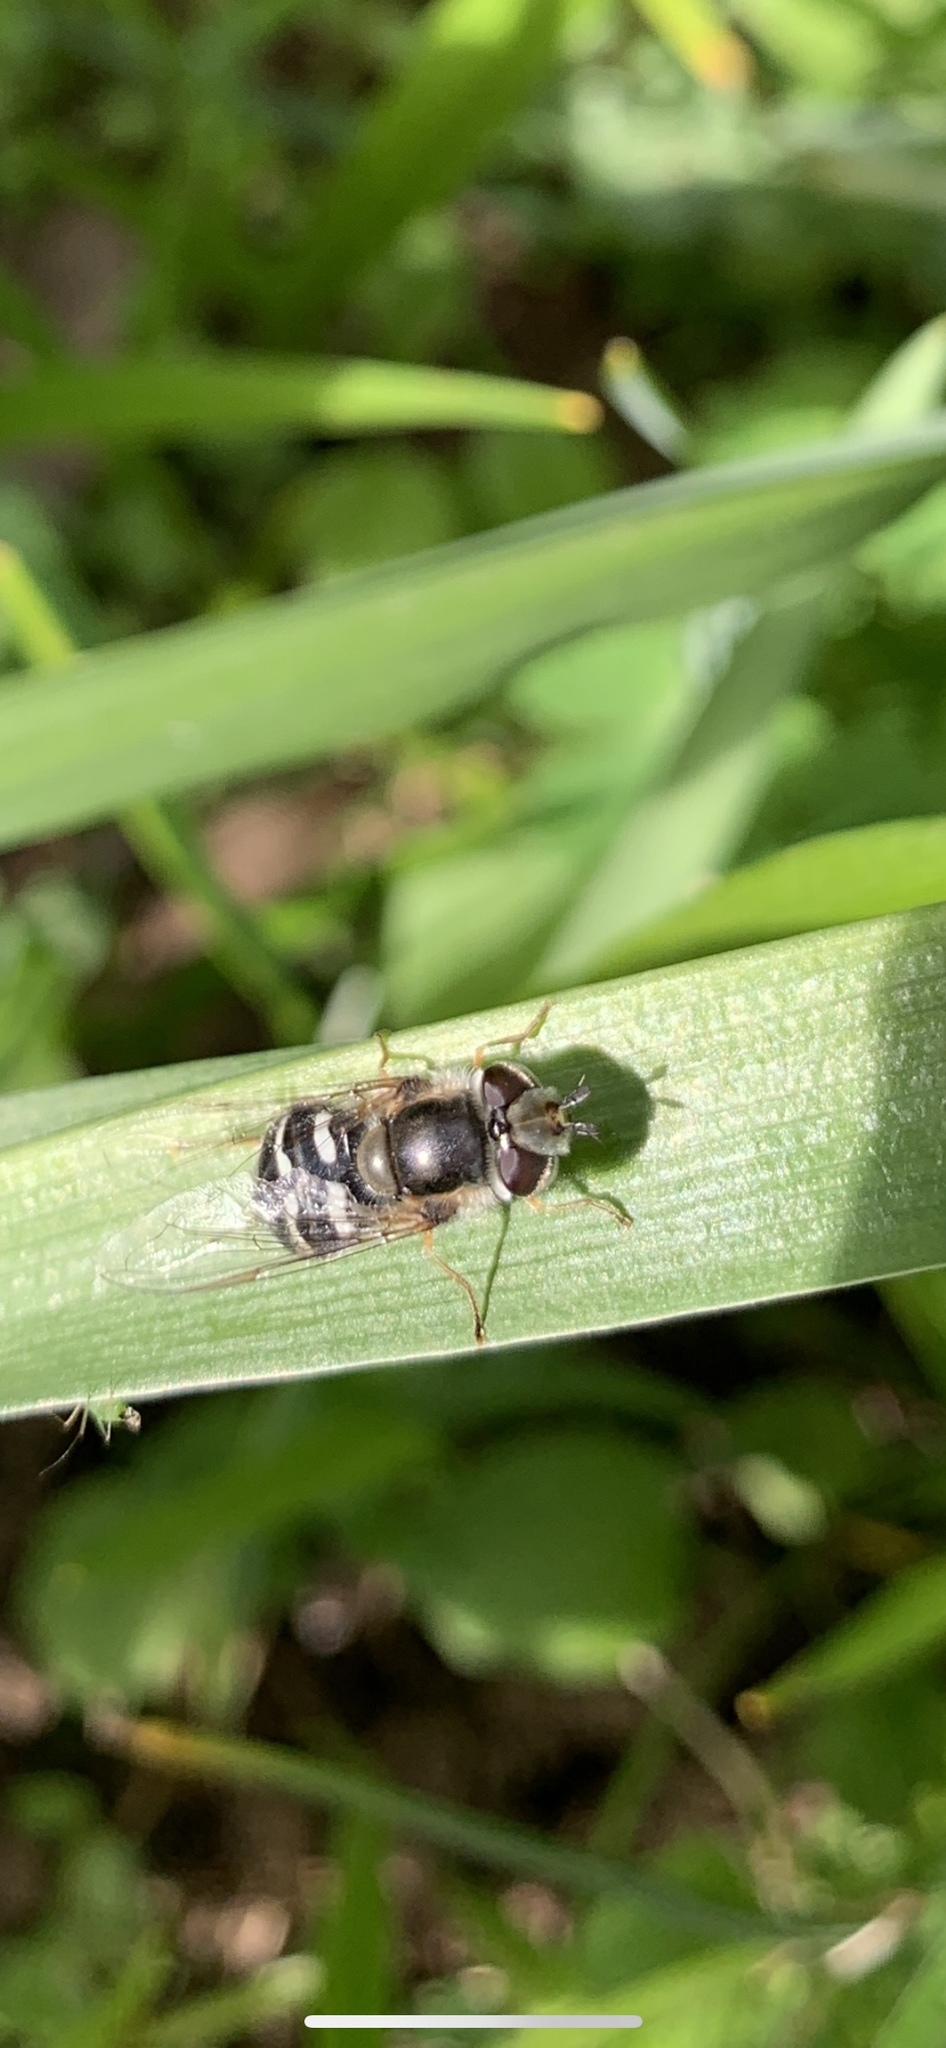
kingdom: Animalia
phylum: Arthropoda
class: Insecta
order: Diptera
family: Syrphidae
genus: Scaeva
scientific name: Scaeva affinis
